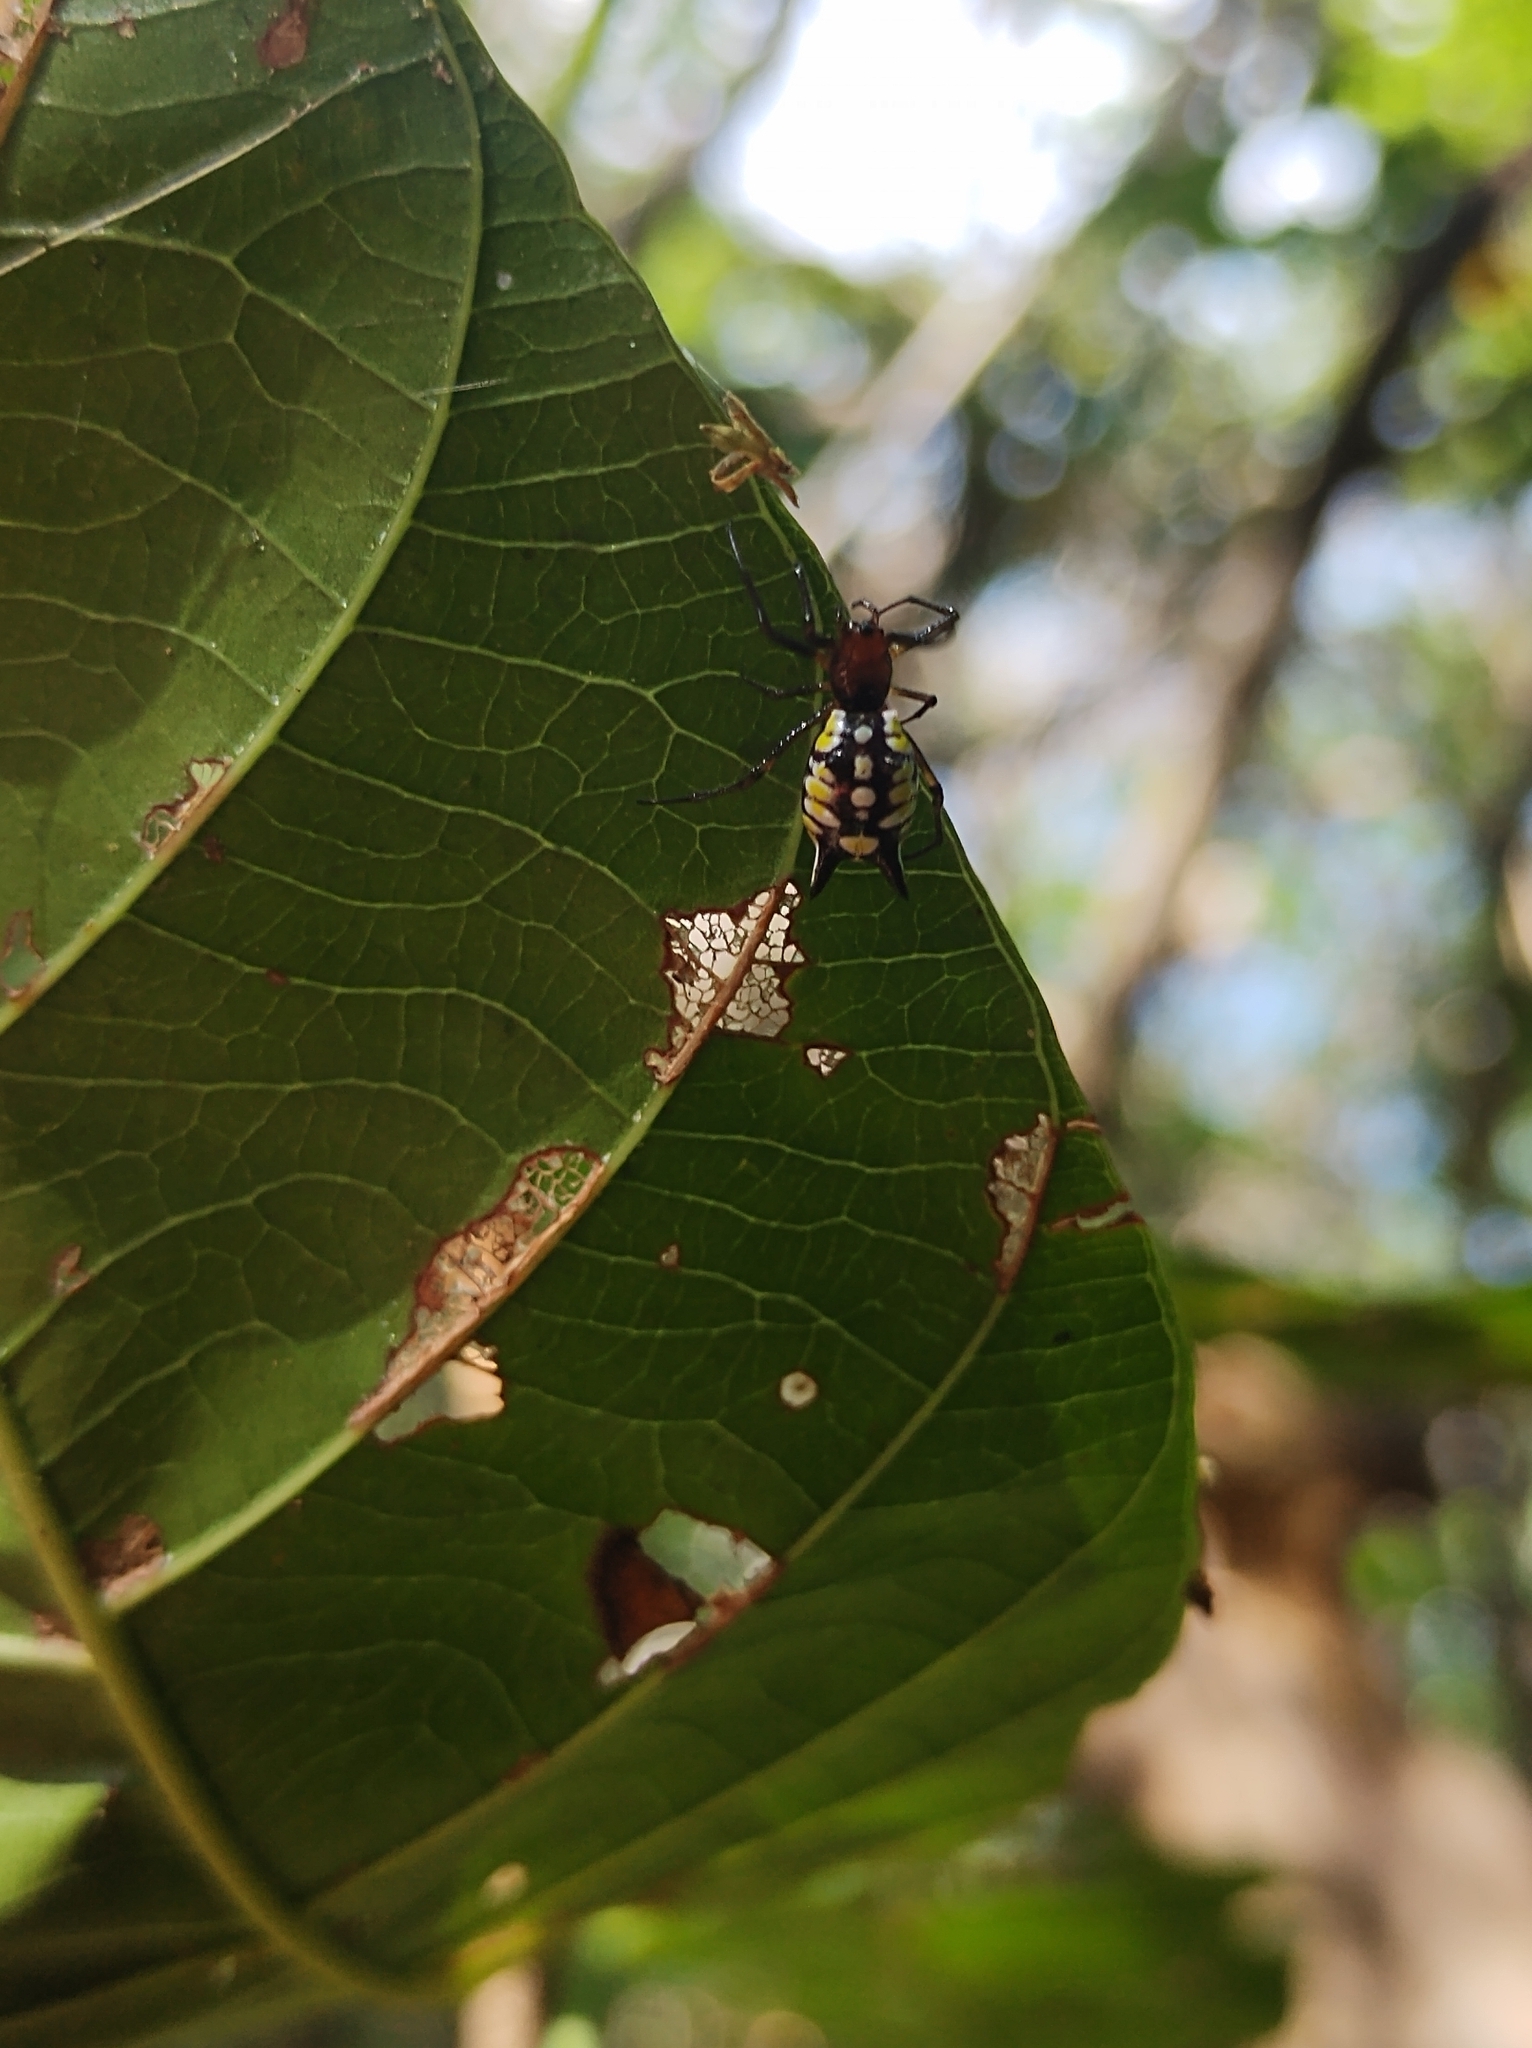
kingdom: Animalia
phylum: Arthropoda
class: Arachnida
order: Araneae
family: Araneidae
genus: Micrathena
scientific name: Micrathena funebris
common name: Orb weavers
